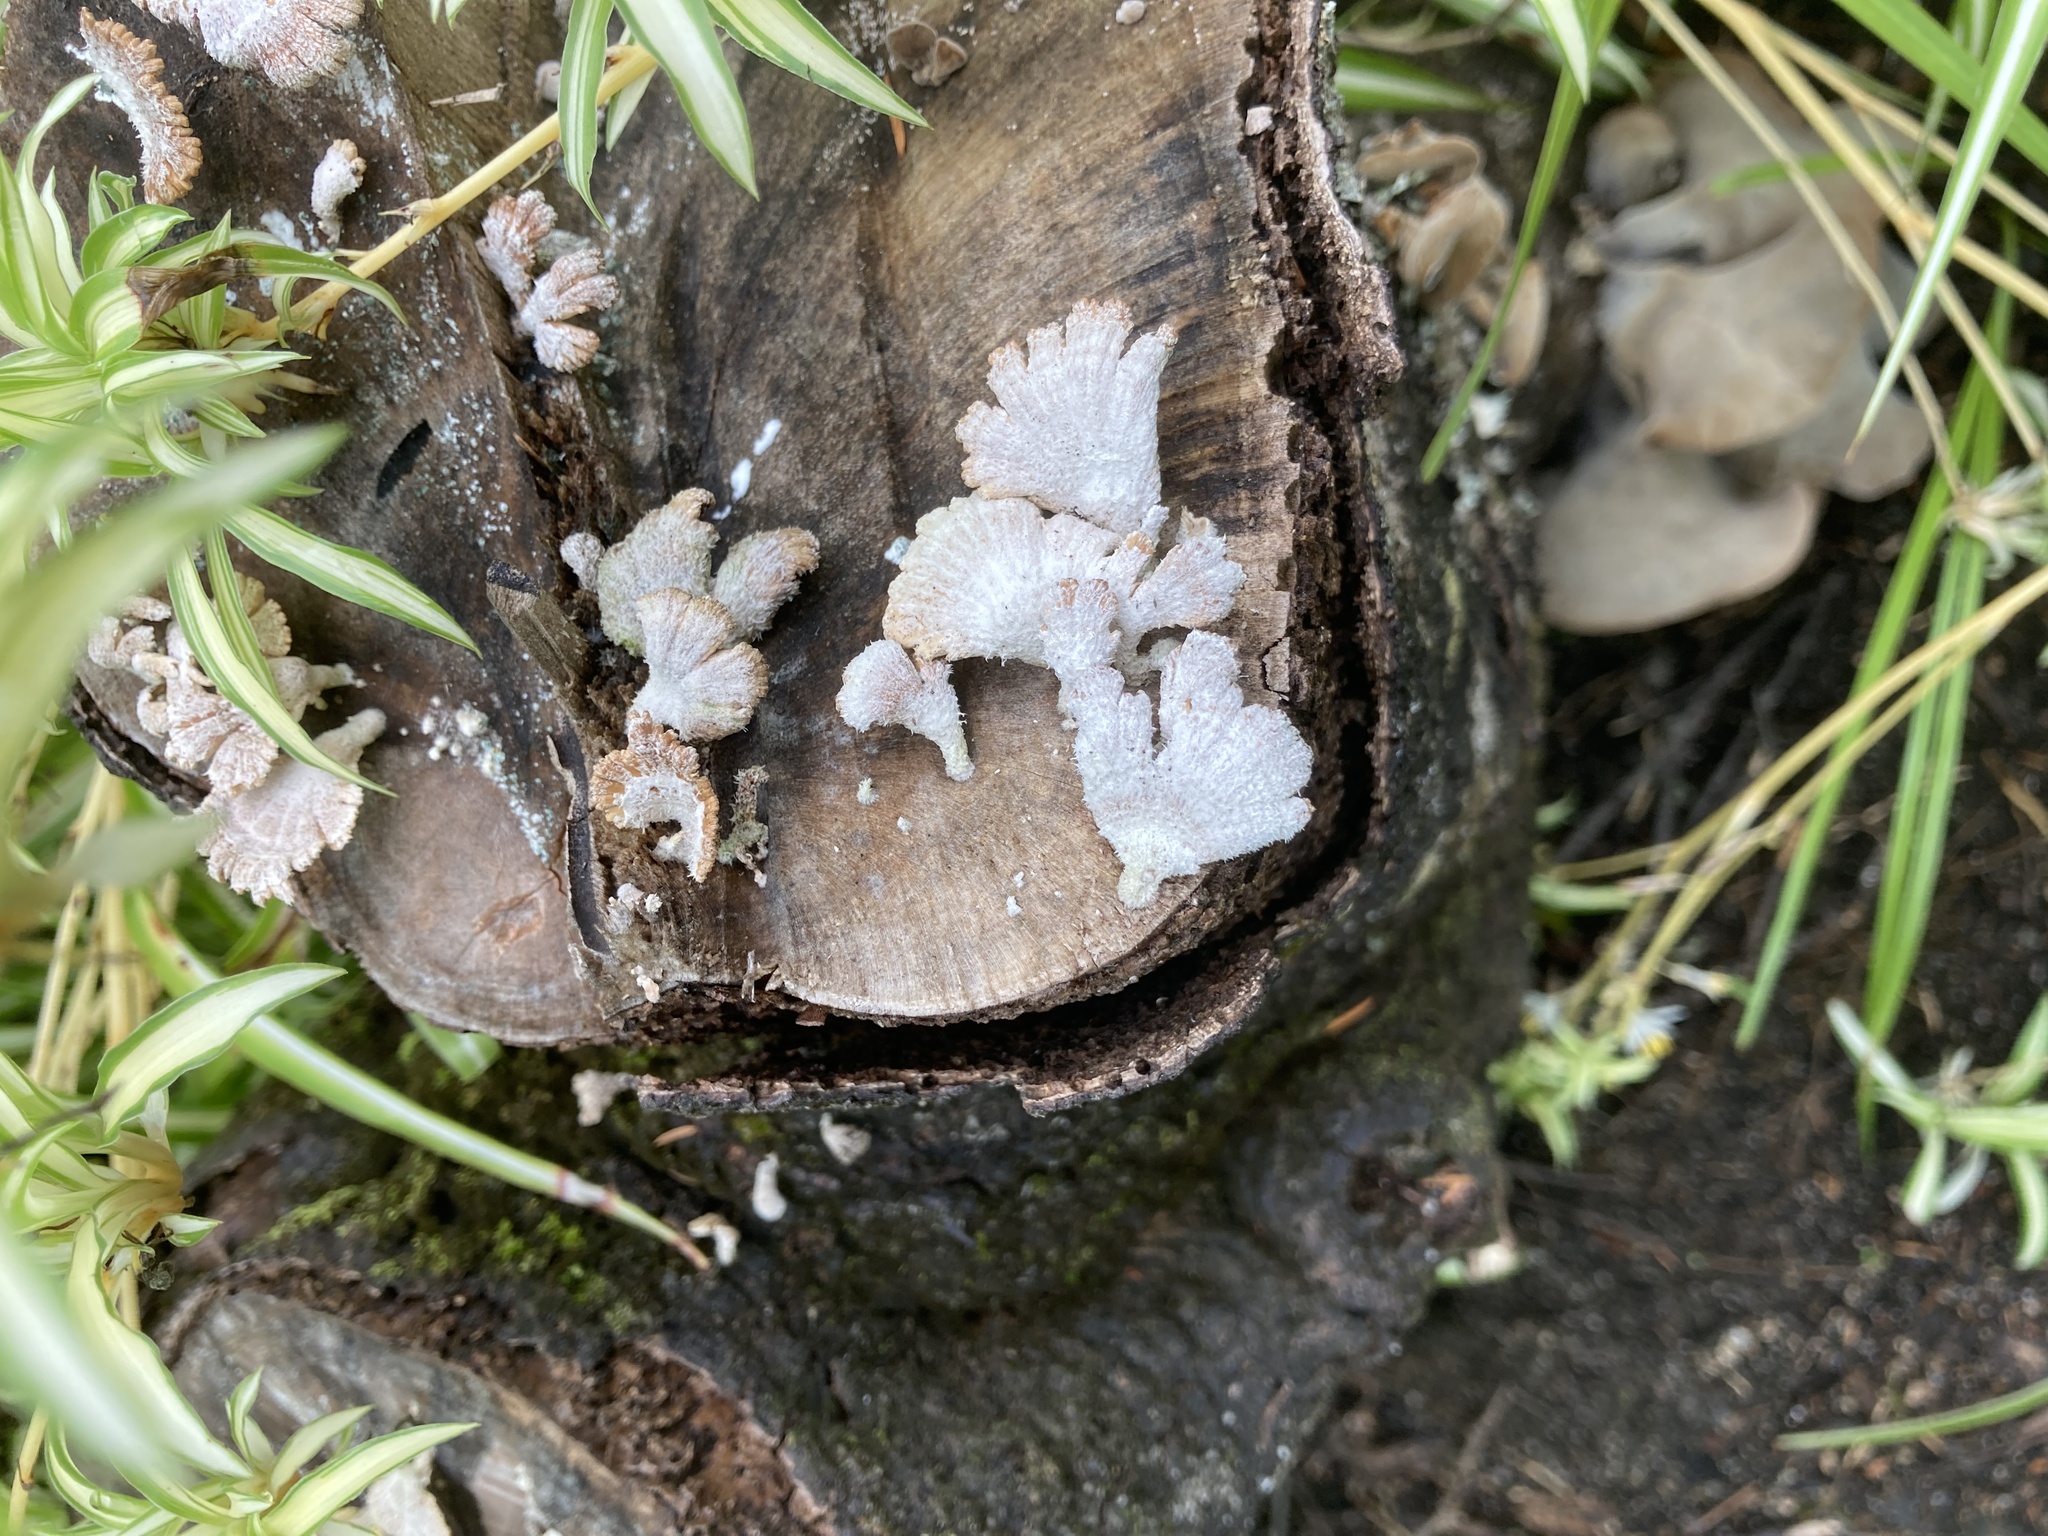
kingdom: Fungi
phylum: Basidiomycota
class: Agaricomycetes
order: Agaricales
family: Schizophyllaceae
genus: Schizophyllum
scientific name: Schizophyllum commune
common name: Common porecrust
